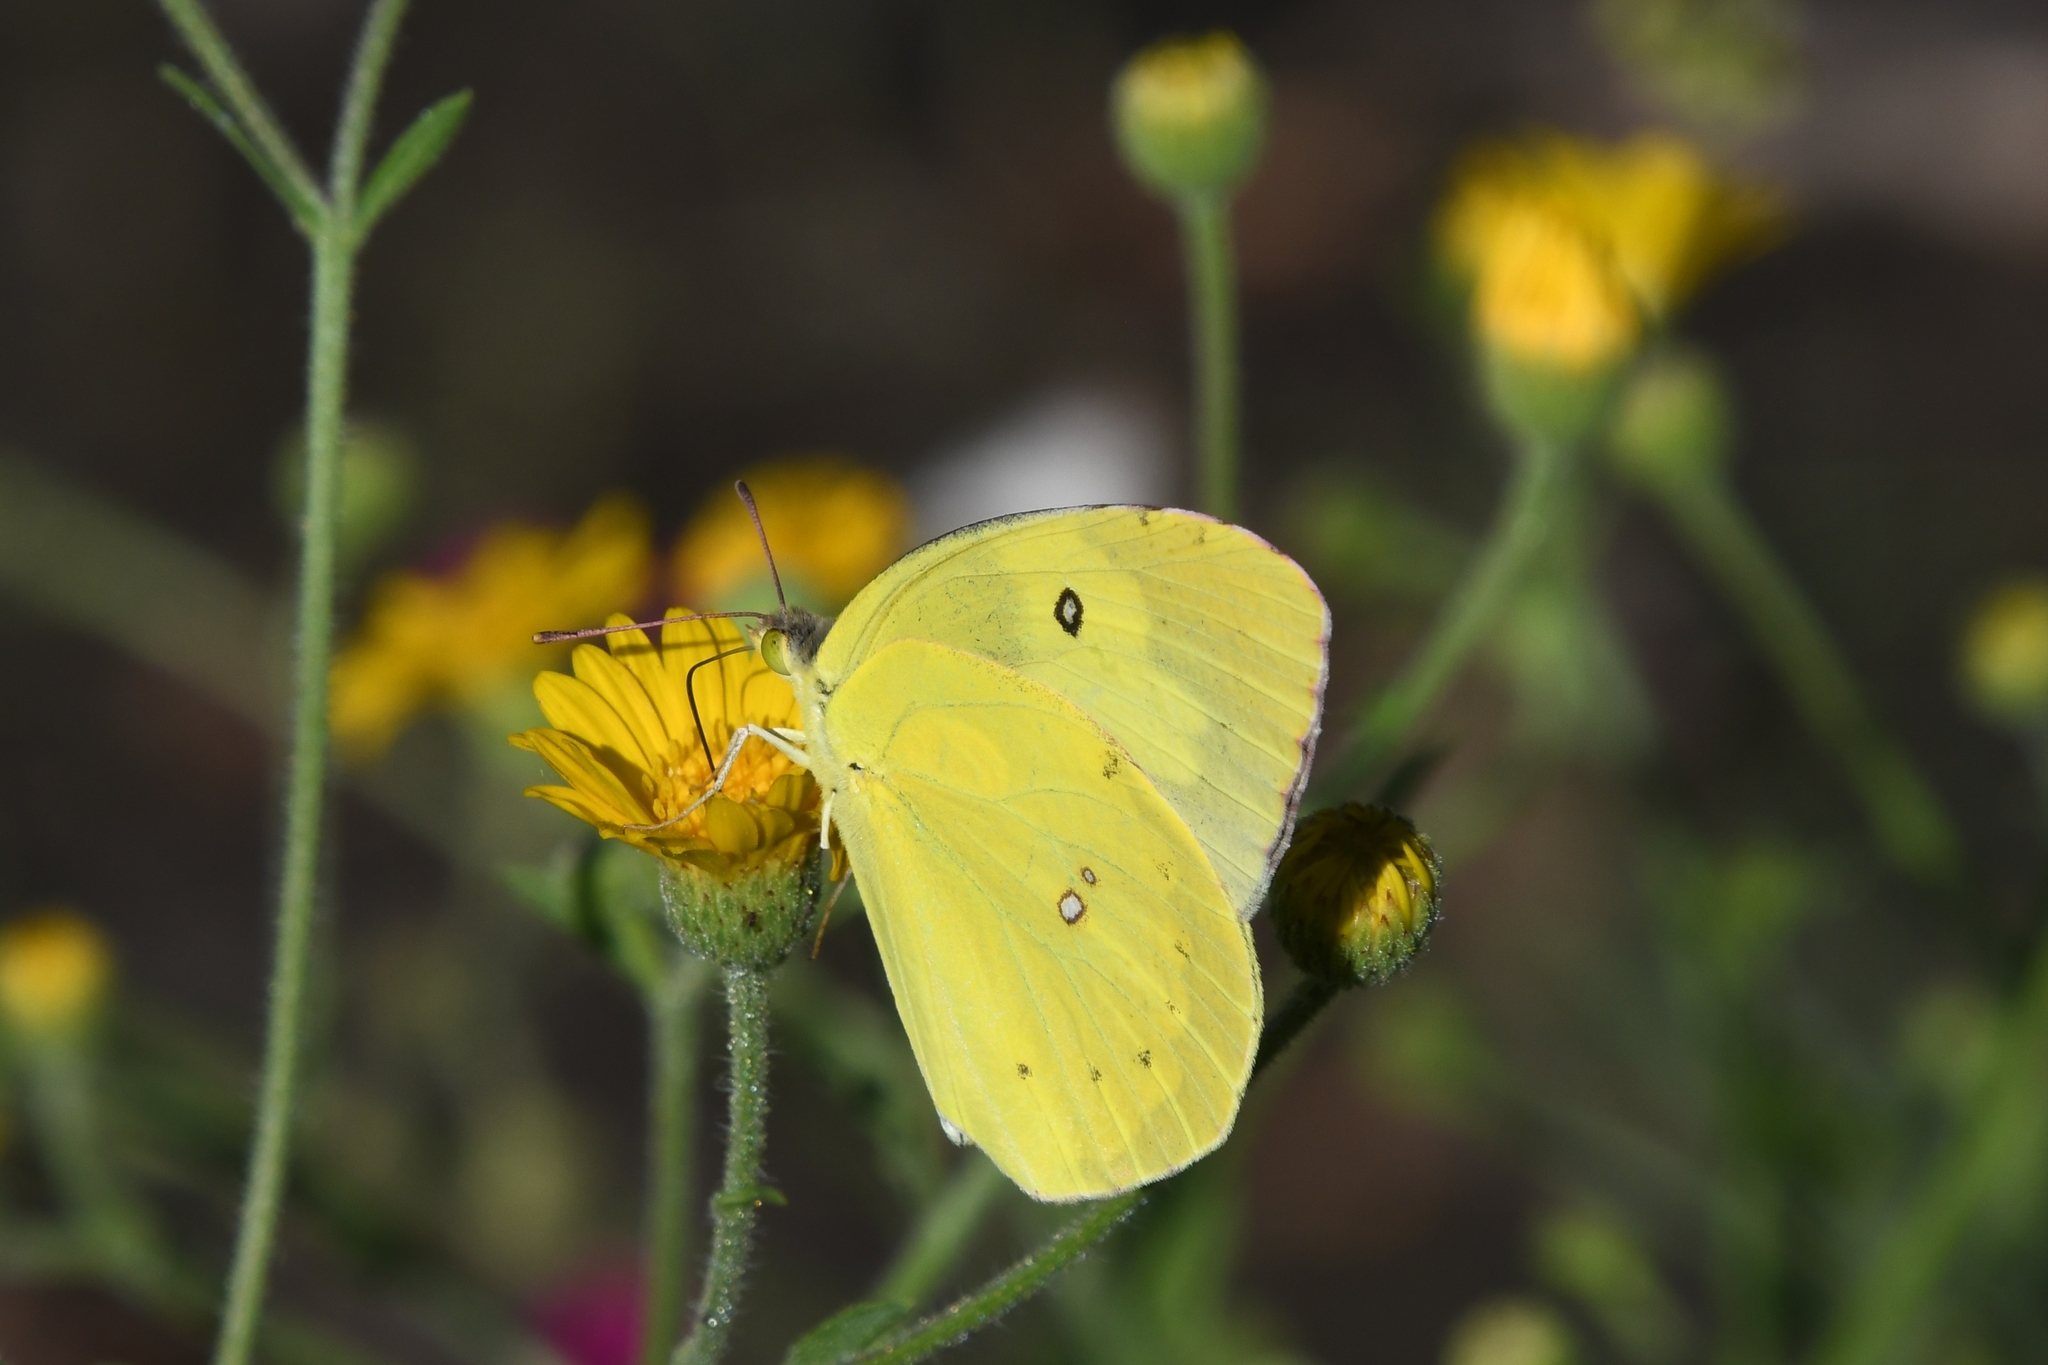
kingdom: Animalia
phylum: Arthropoda
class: Insecta
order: Lepidoptera
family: Pieridae
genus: Zerene
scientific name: Zerene cesonia
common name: Southern dogface
